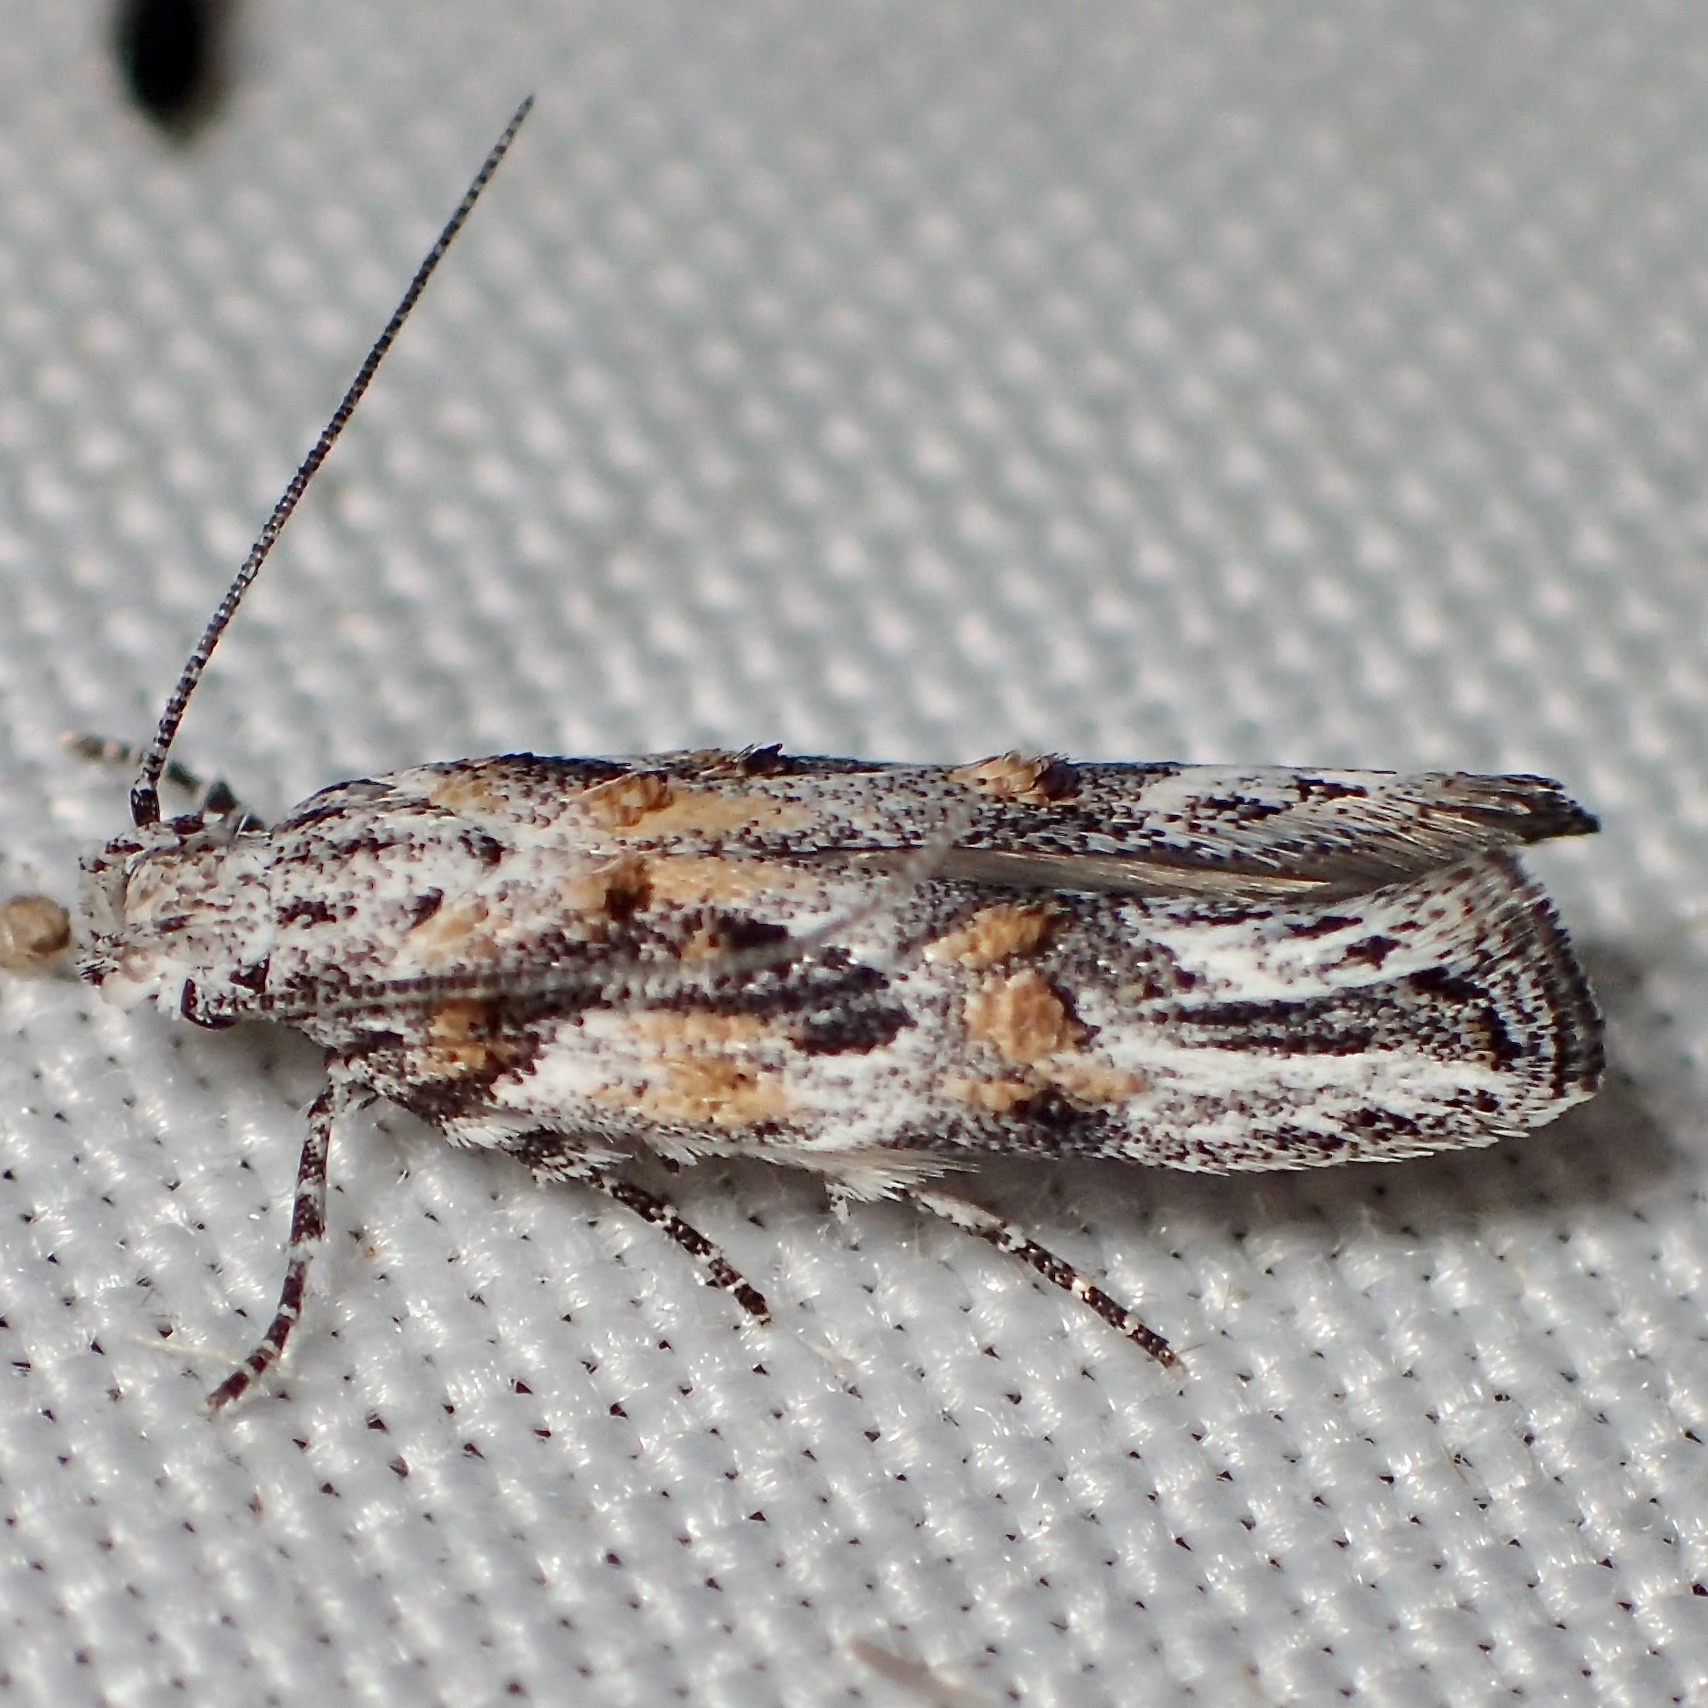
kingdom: Animalia
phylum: Arthropoda
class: Insecta
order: Lepidoptera
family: Gelechiidae
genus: Friseria
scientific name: Friseria caieta
